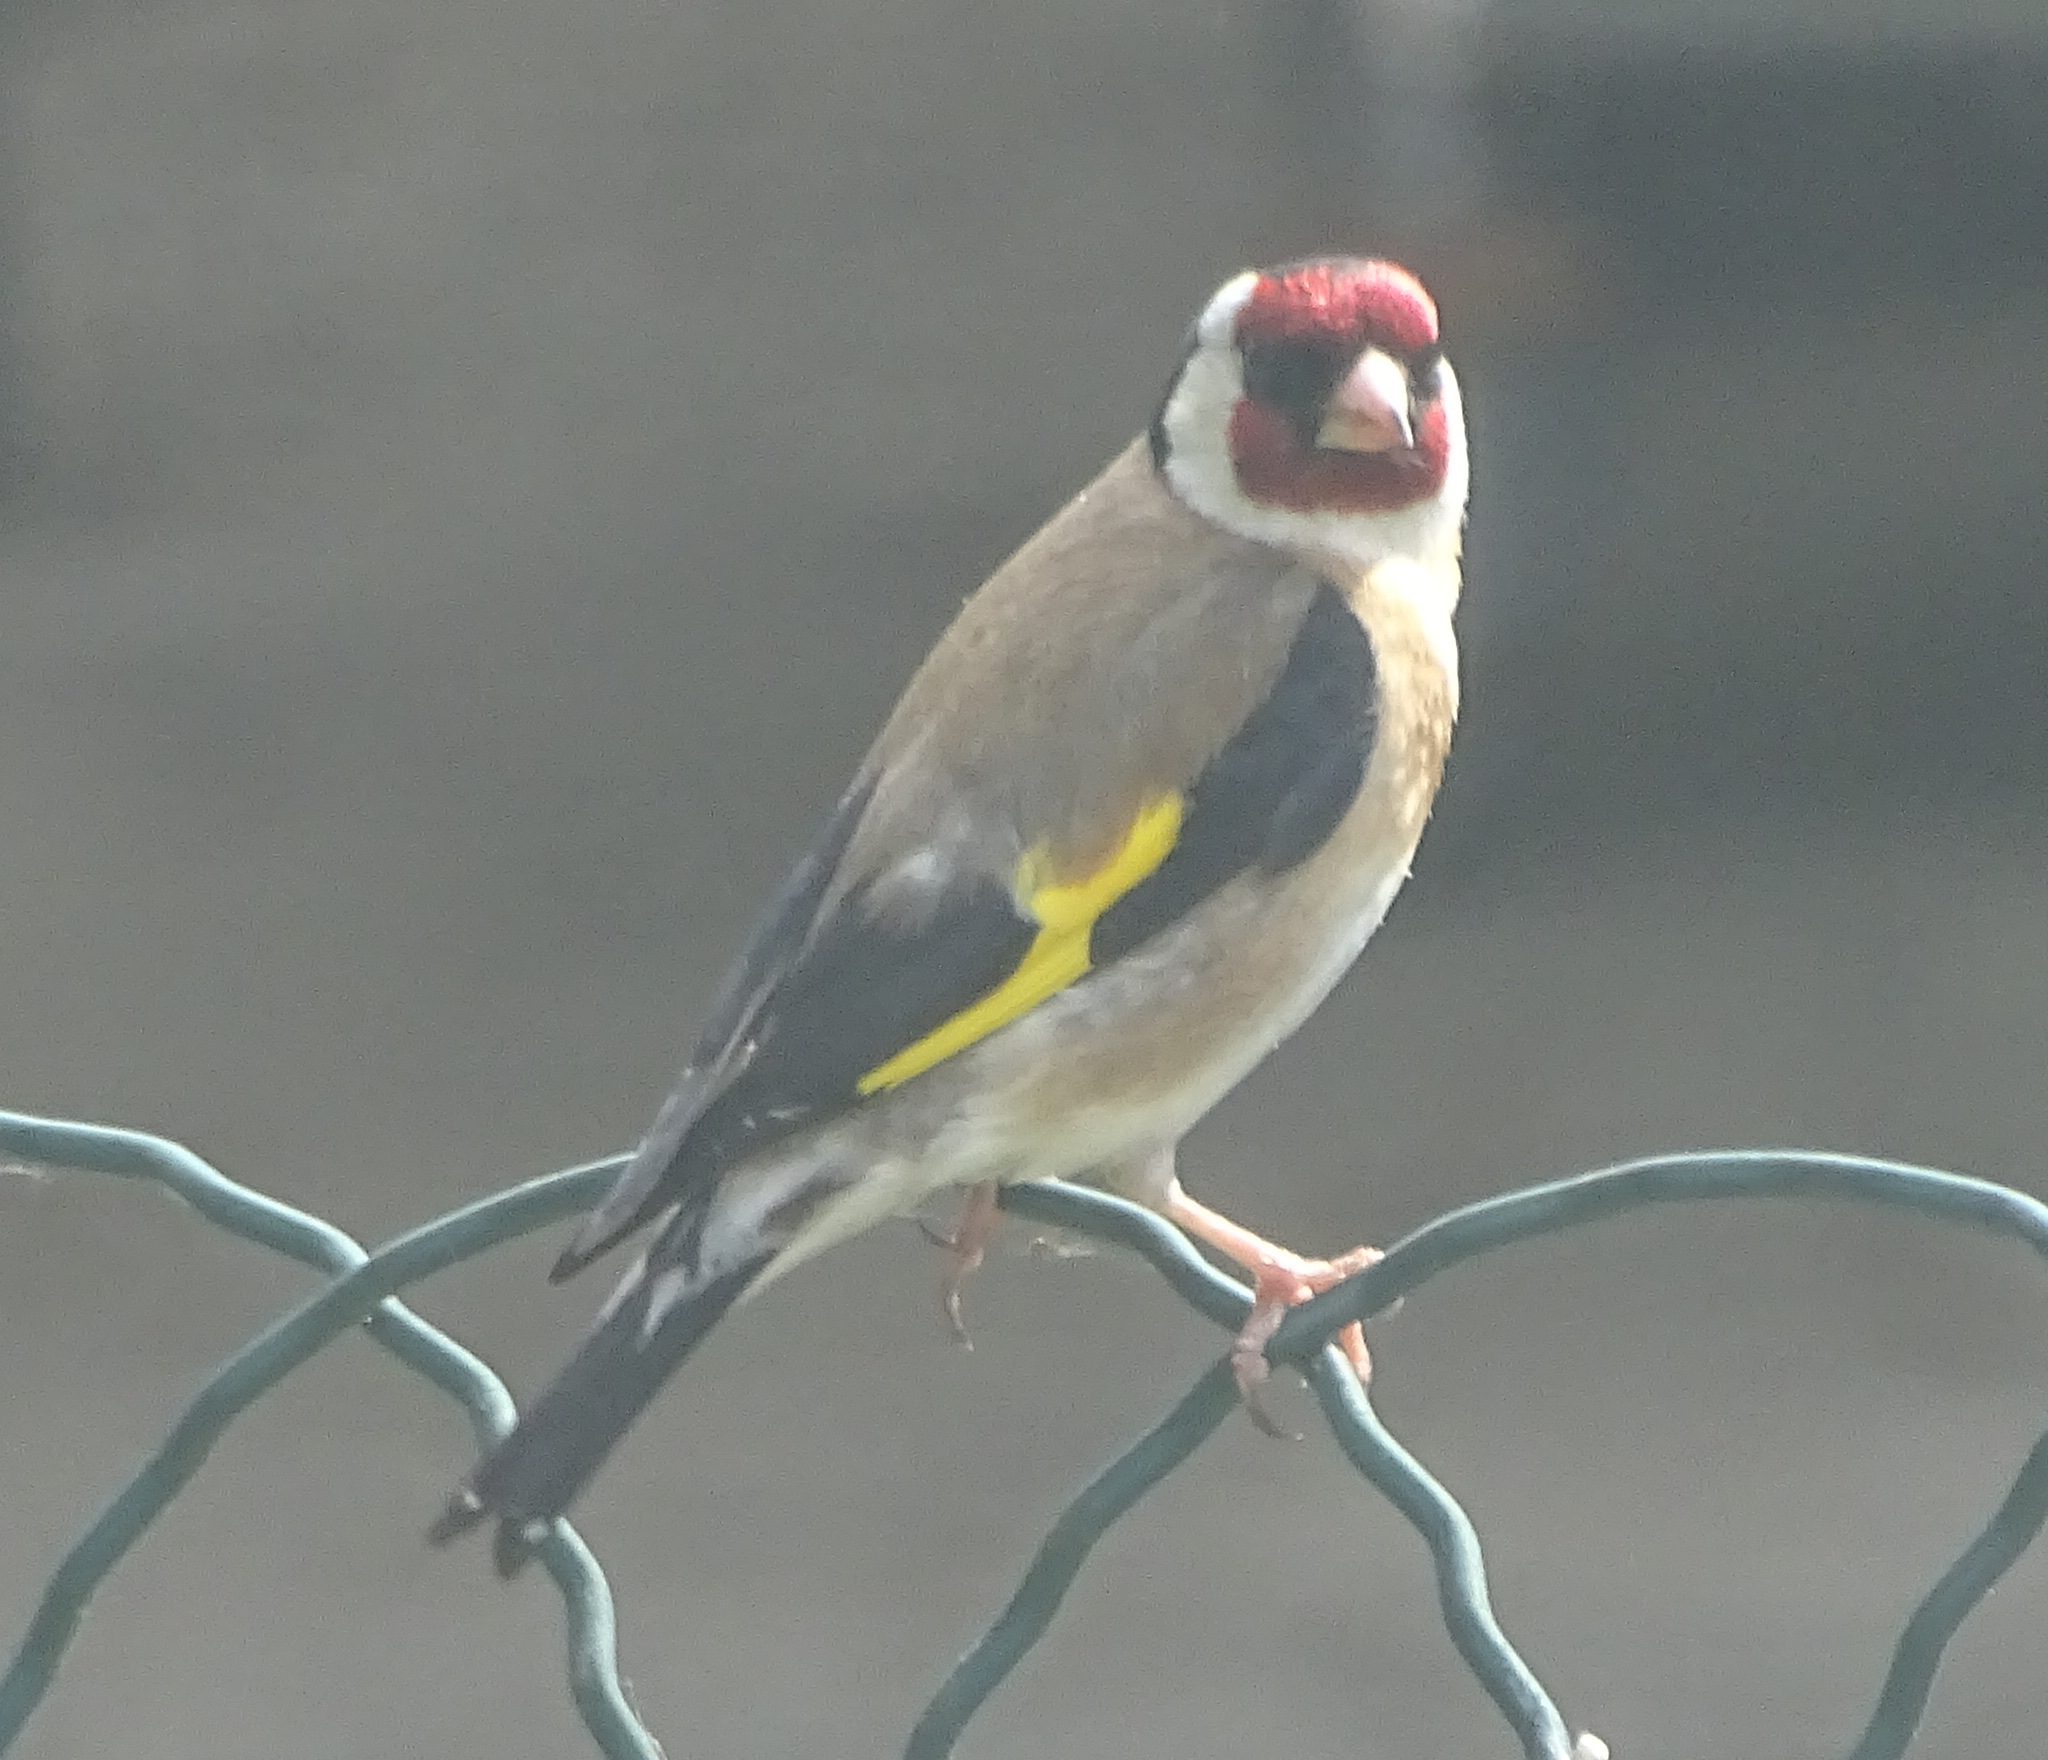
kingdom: Animalia
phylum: Chordata
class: Aves
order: Passeriformes
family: Fringillidae
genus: Carduelis
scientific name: Carduelis carduelis
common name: European goldfinch
